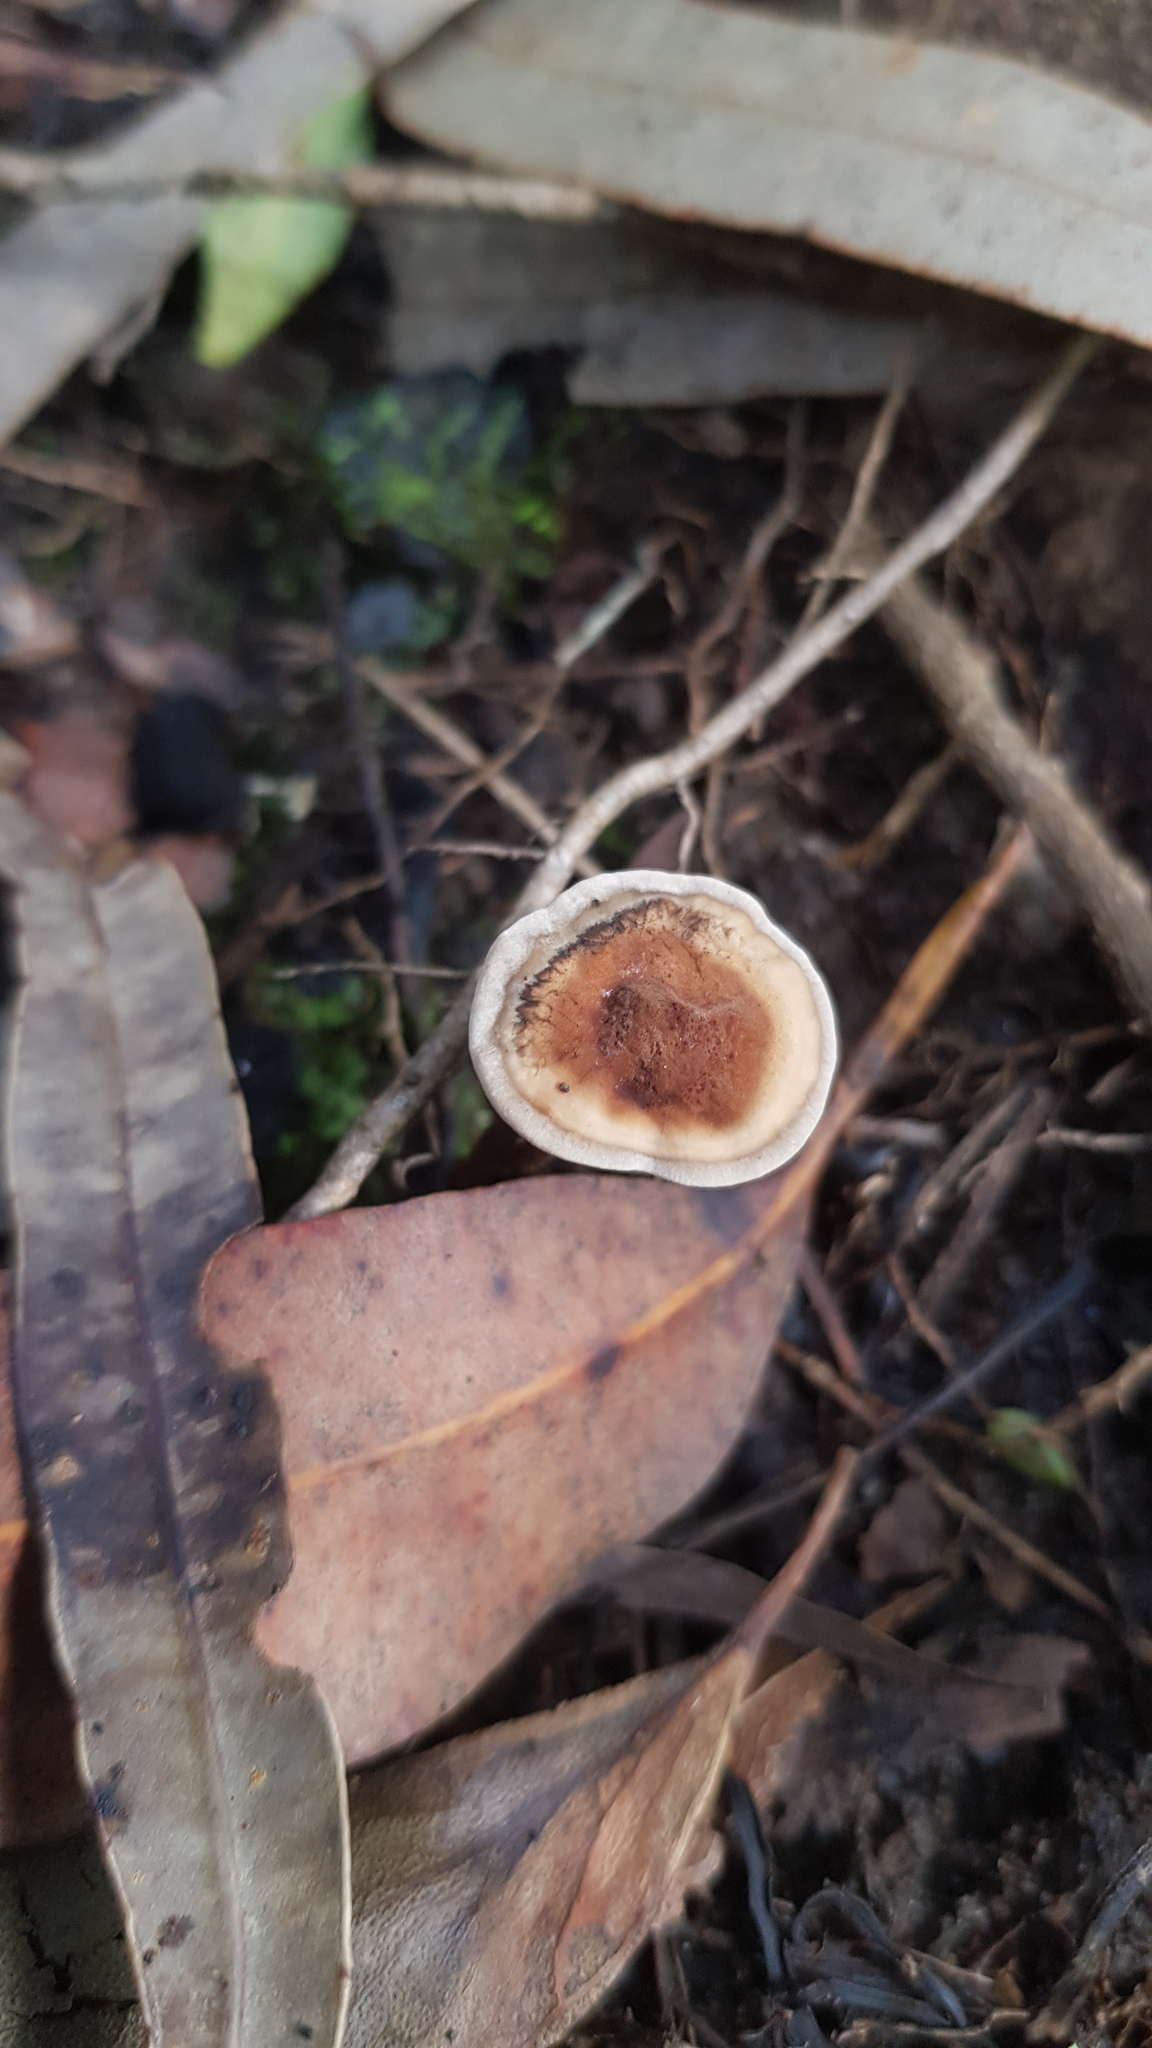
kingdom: Fungi
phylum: Basidiomycota
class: Agaricomycetes
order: Polyporales
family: Ganodermataceae
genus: Sanguinoderma
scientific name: Sanguinoderma rude
